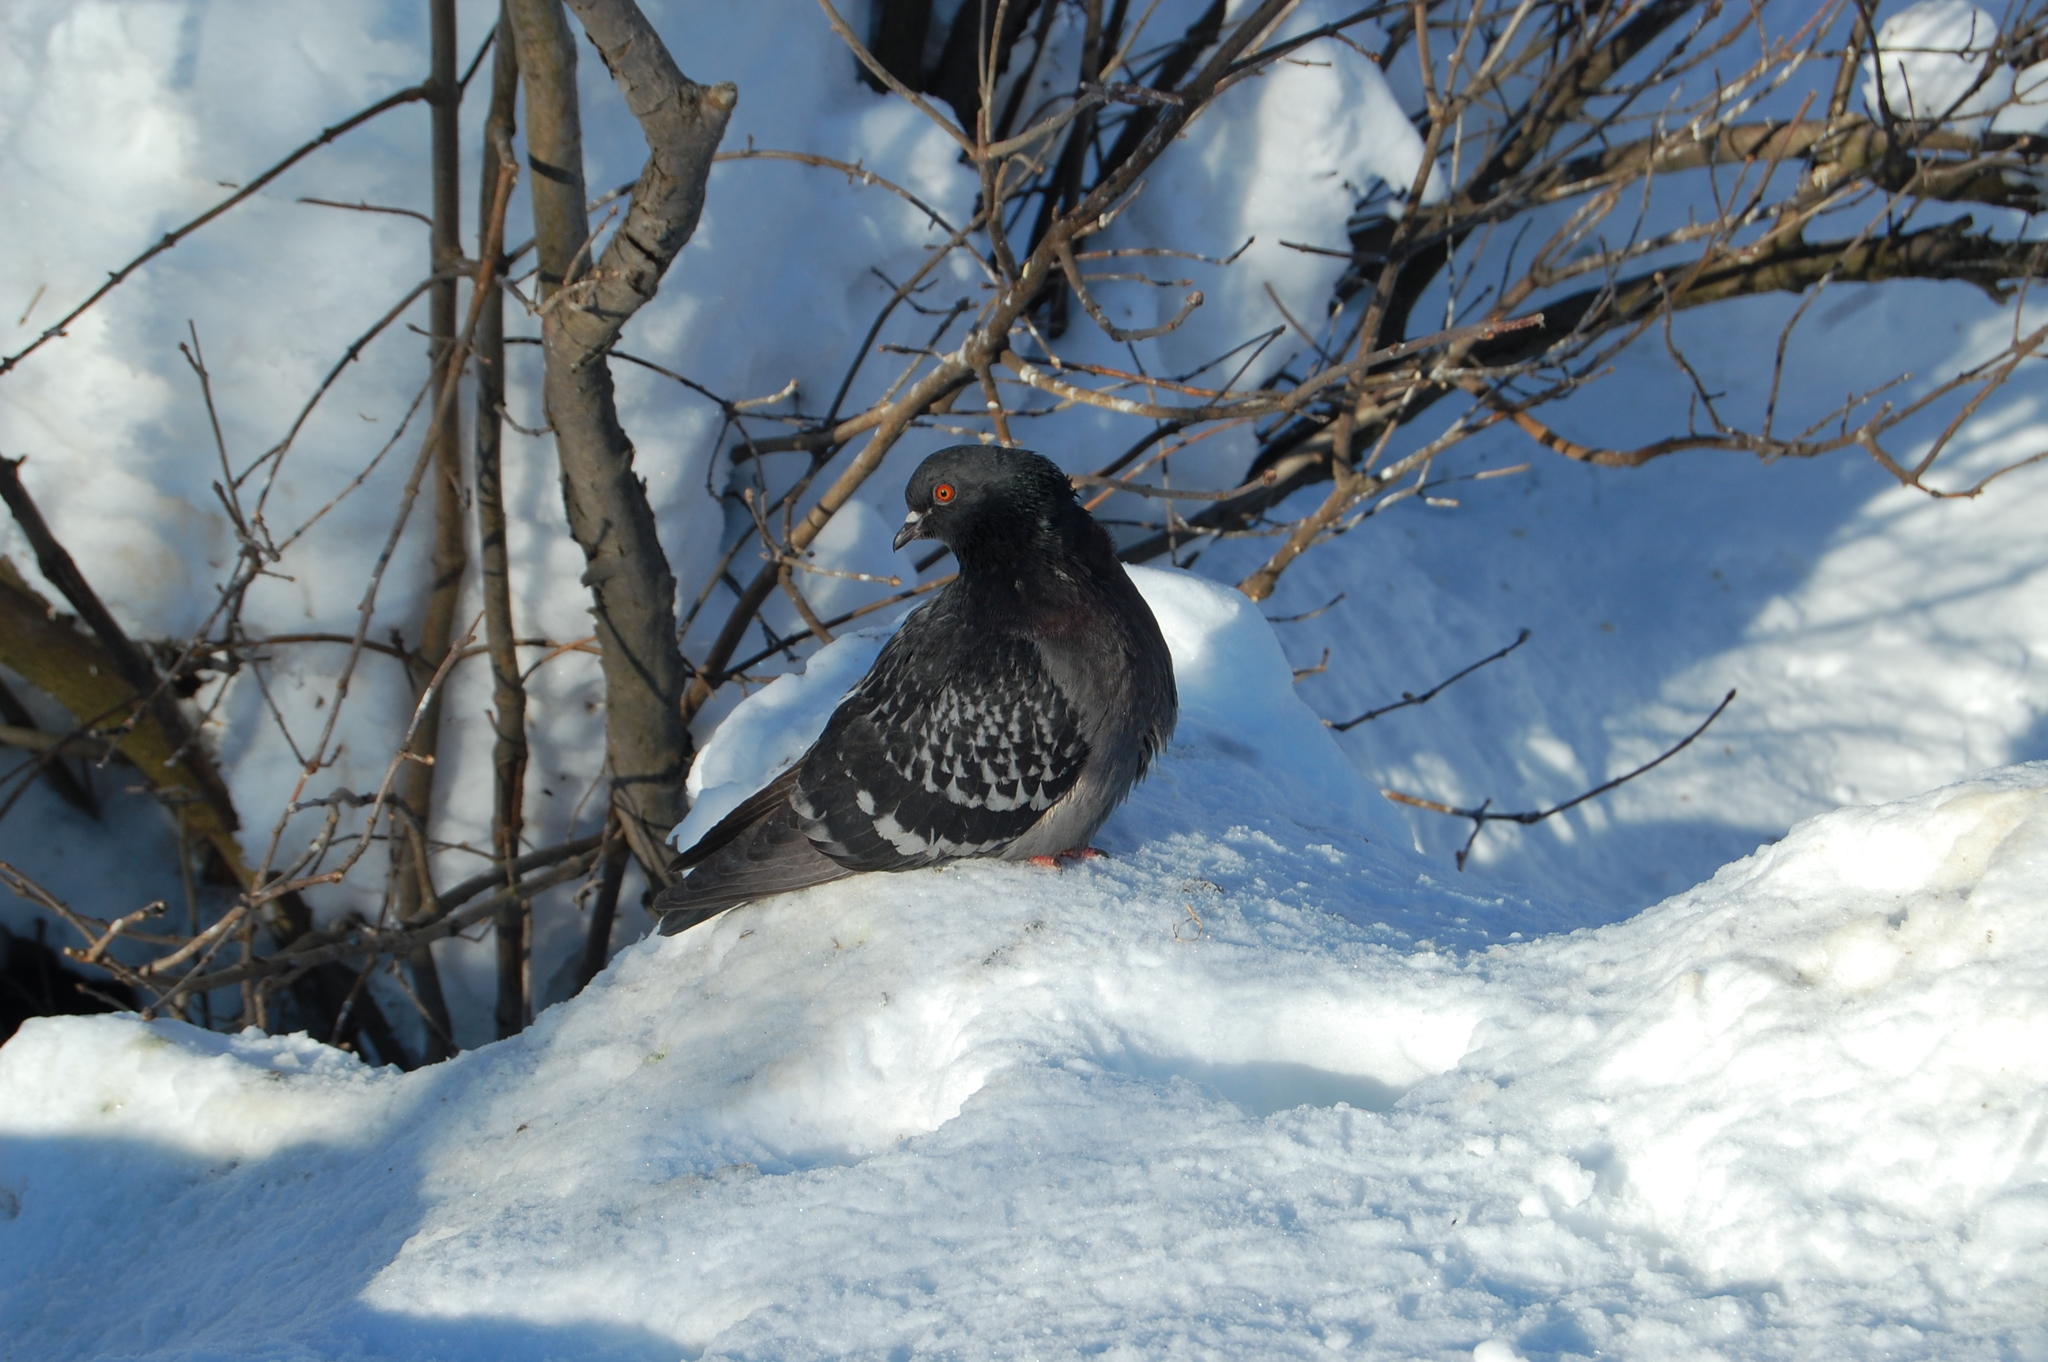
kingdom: Animalia
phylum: Chordata
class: Aves
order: Columbiformes
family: Columbidae
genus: Columba
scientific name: Columba livia
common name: Rock pigeon
